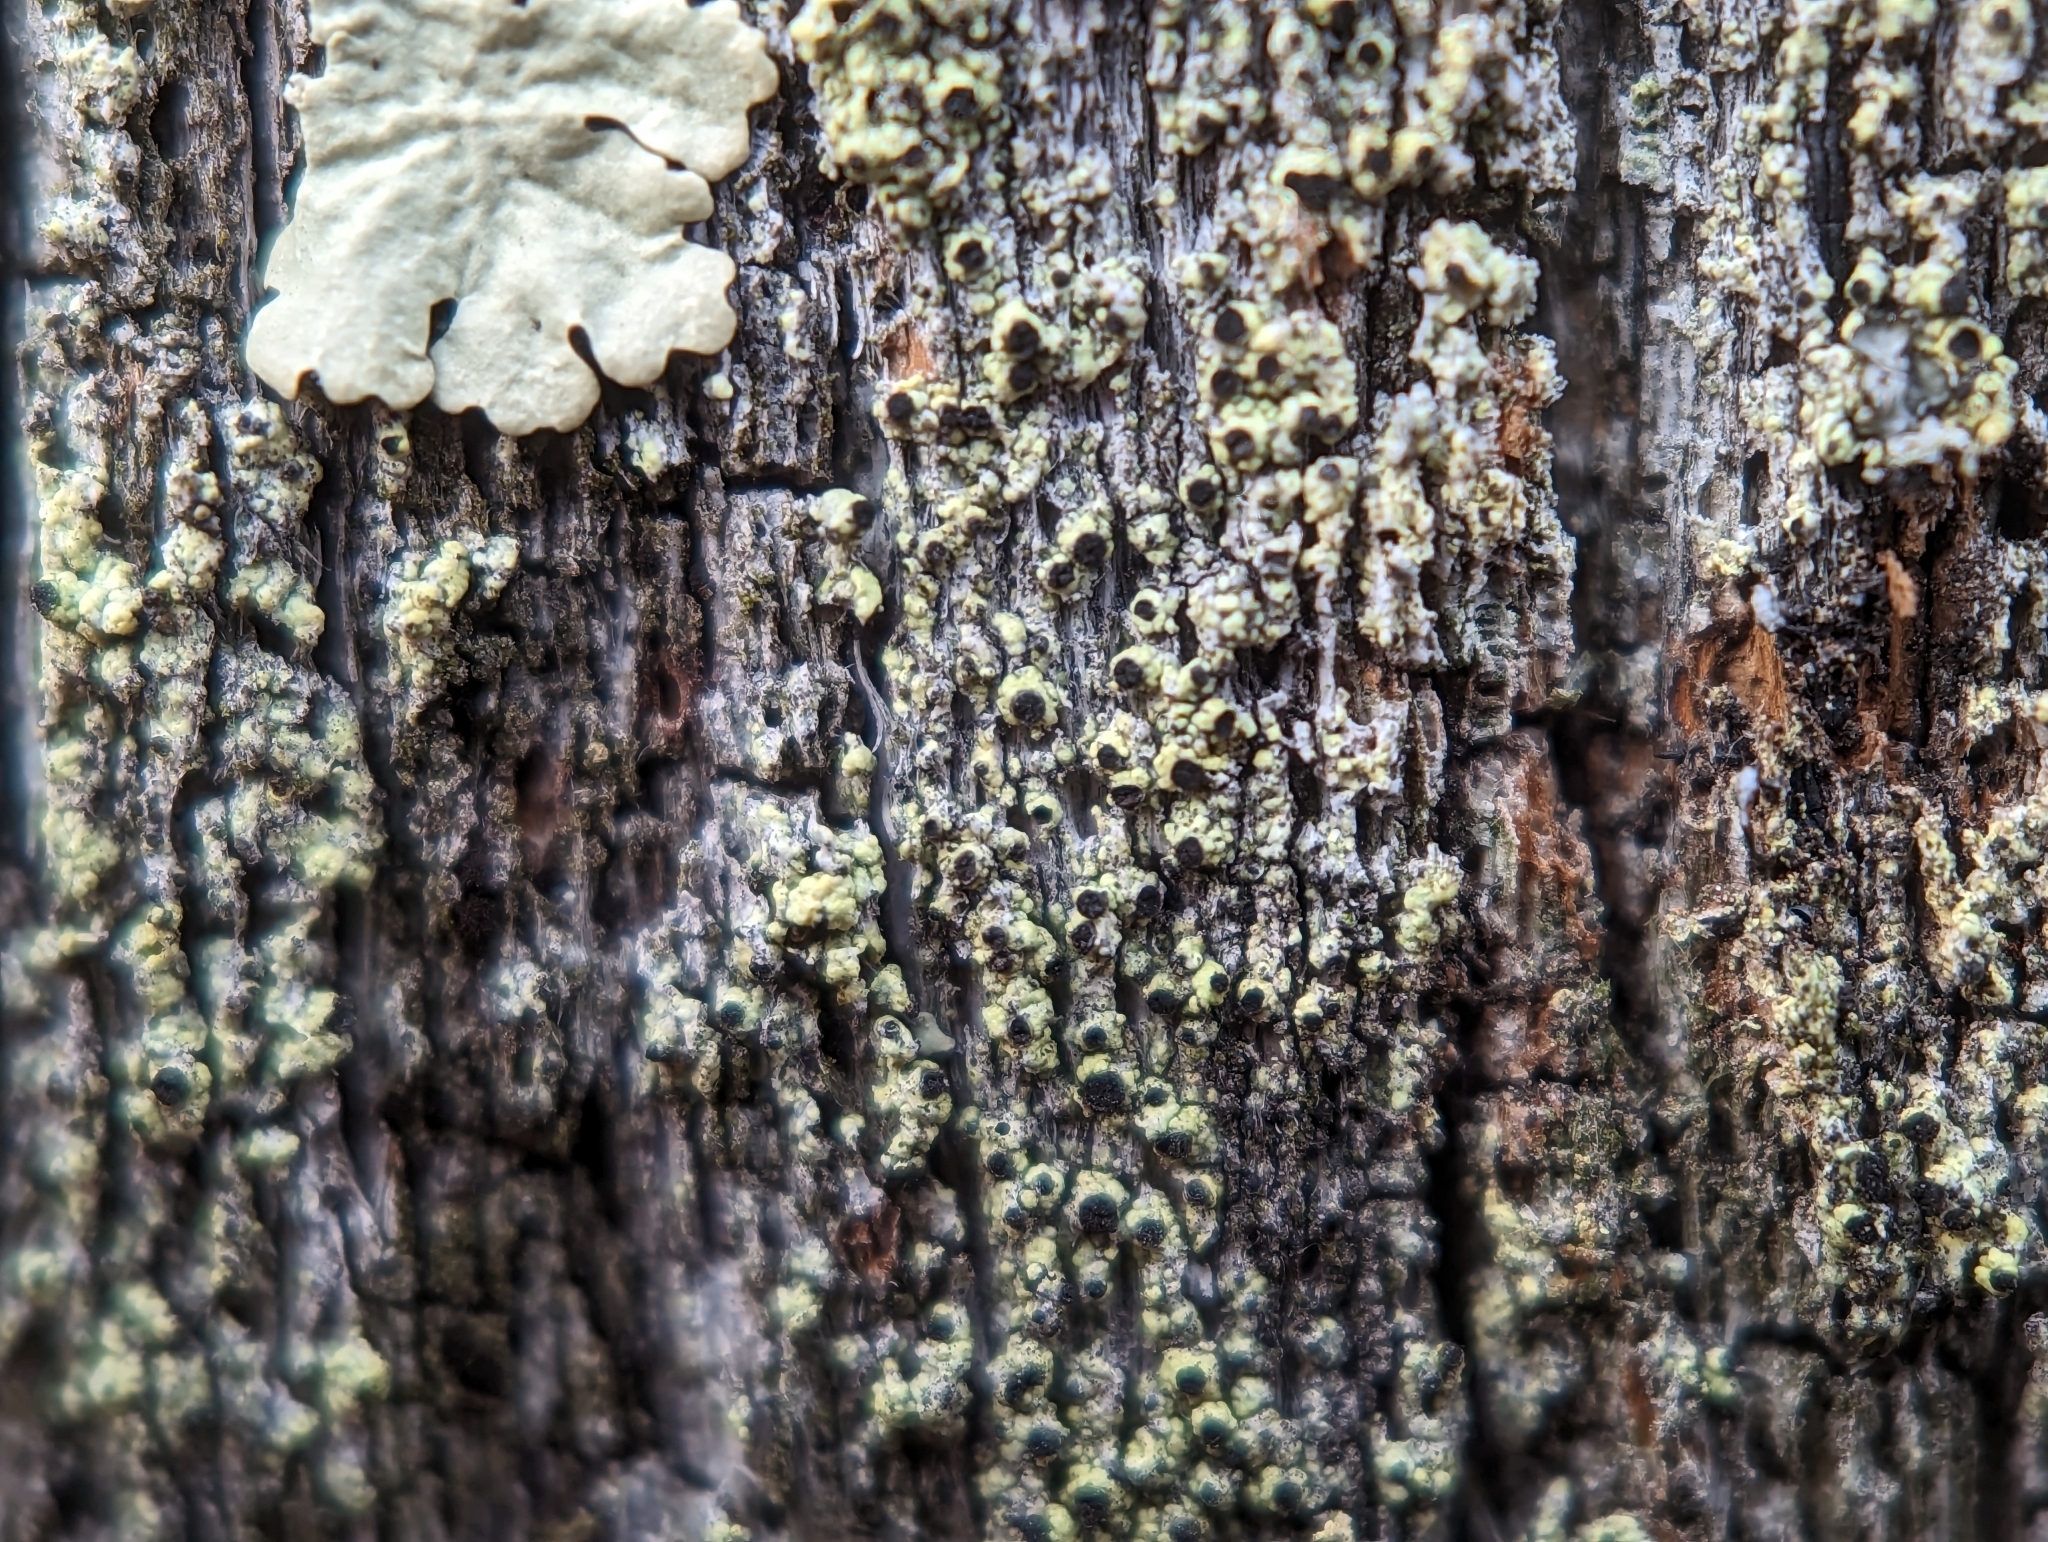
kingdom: Fungi
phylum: Ascomycota
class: Lecanoromycetes
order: Caliciales
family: Caliciaceae
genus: Calicium
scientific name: Calicium tigillare
